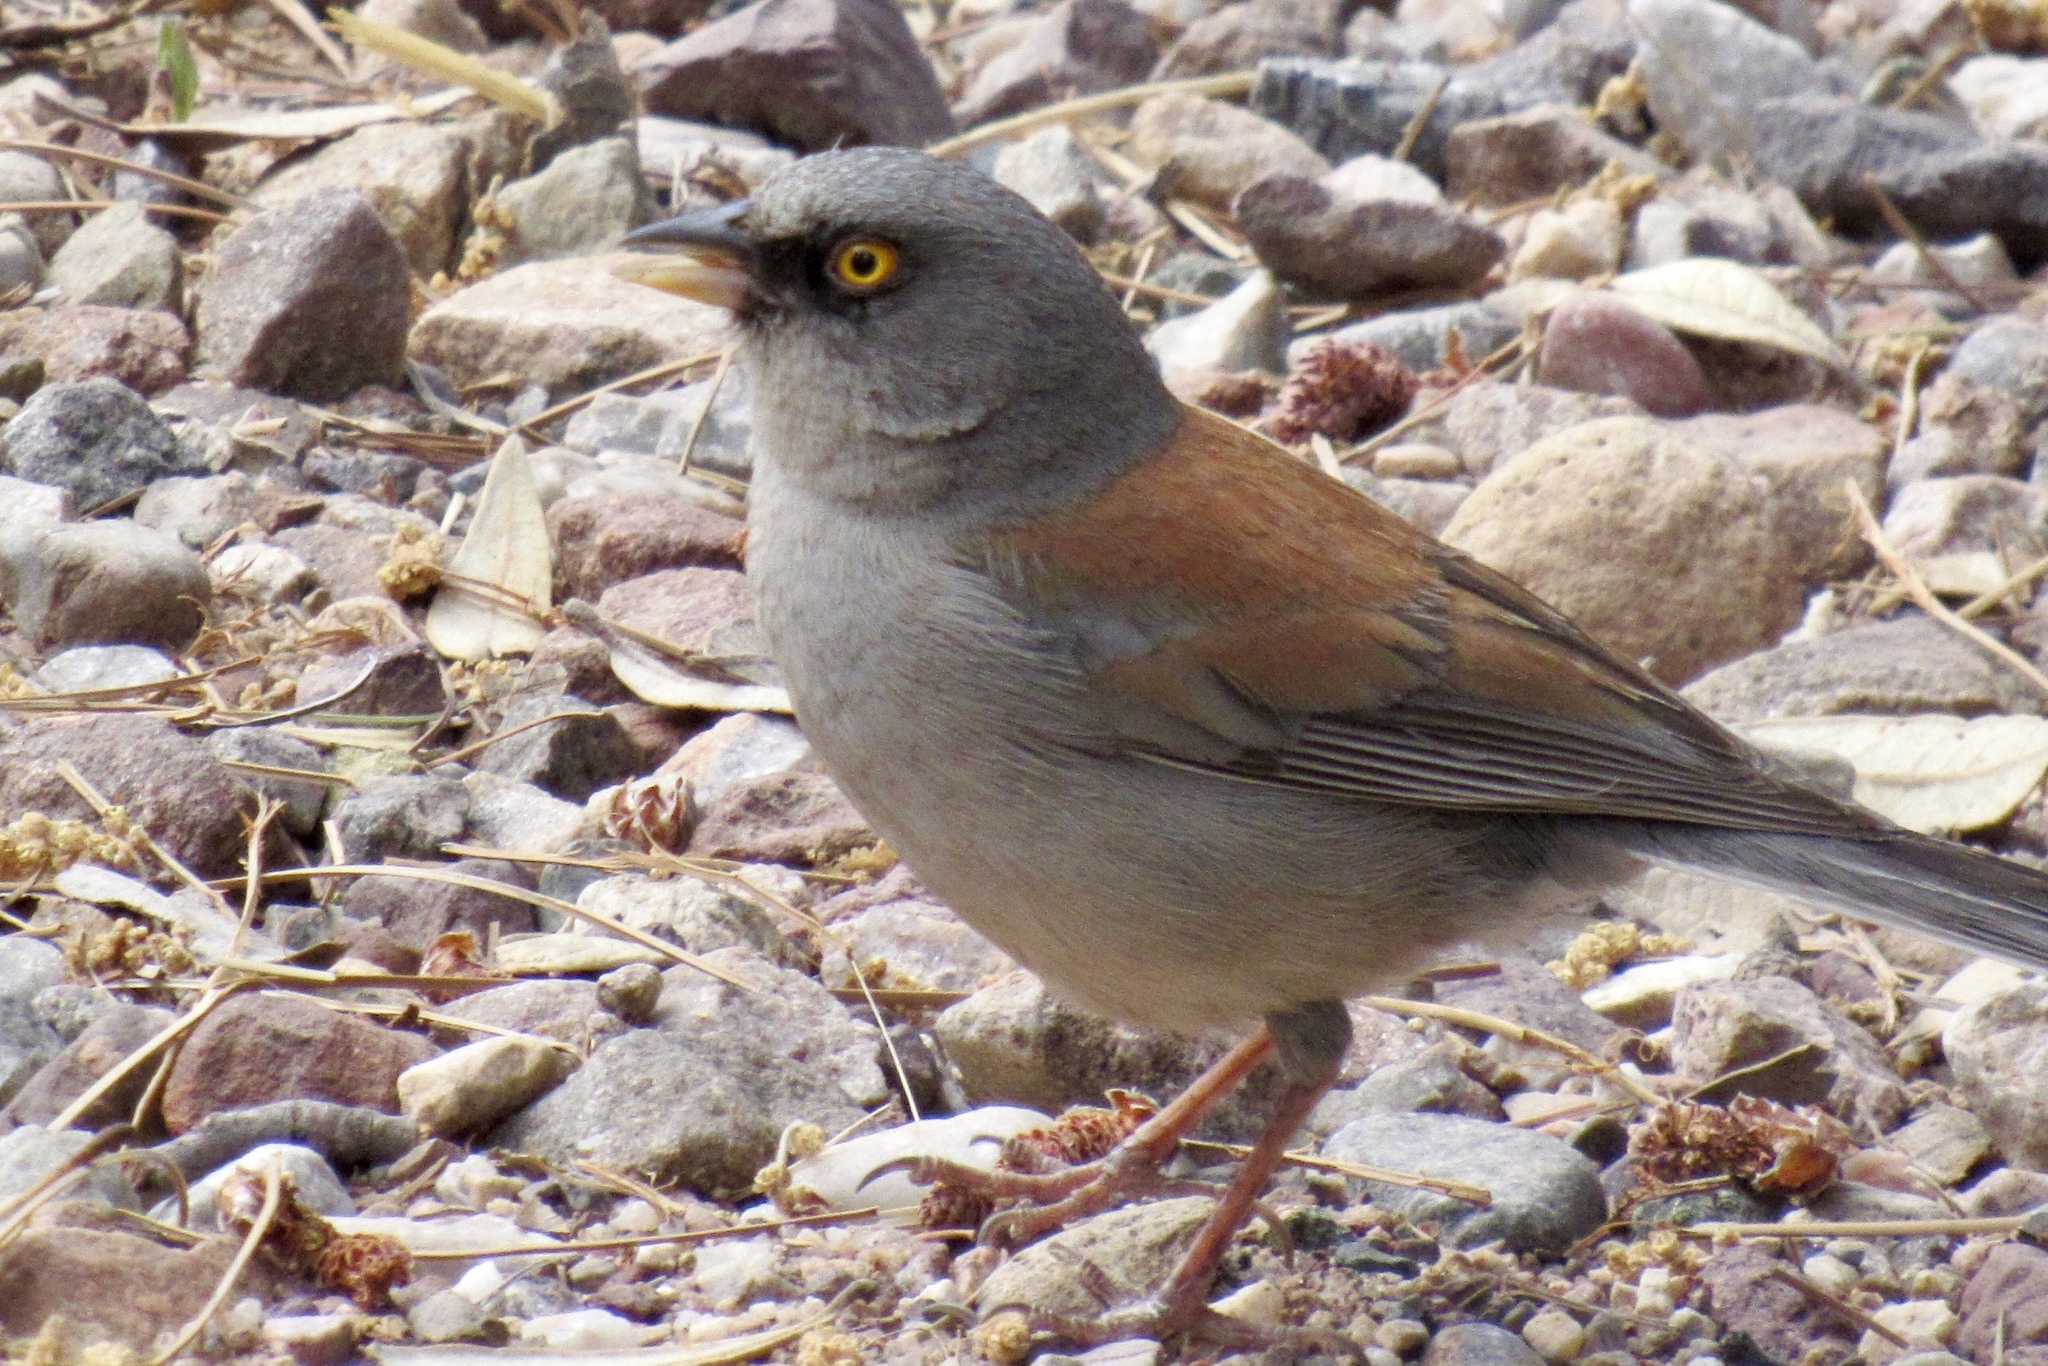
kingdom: Animalia
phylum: Chordata
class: Aves
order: Passeriformes
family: Passerellidae
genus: Junco
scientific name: Junco phaeonotus
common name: Yellow-eyed junco
